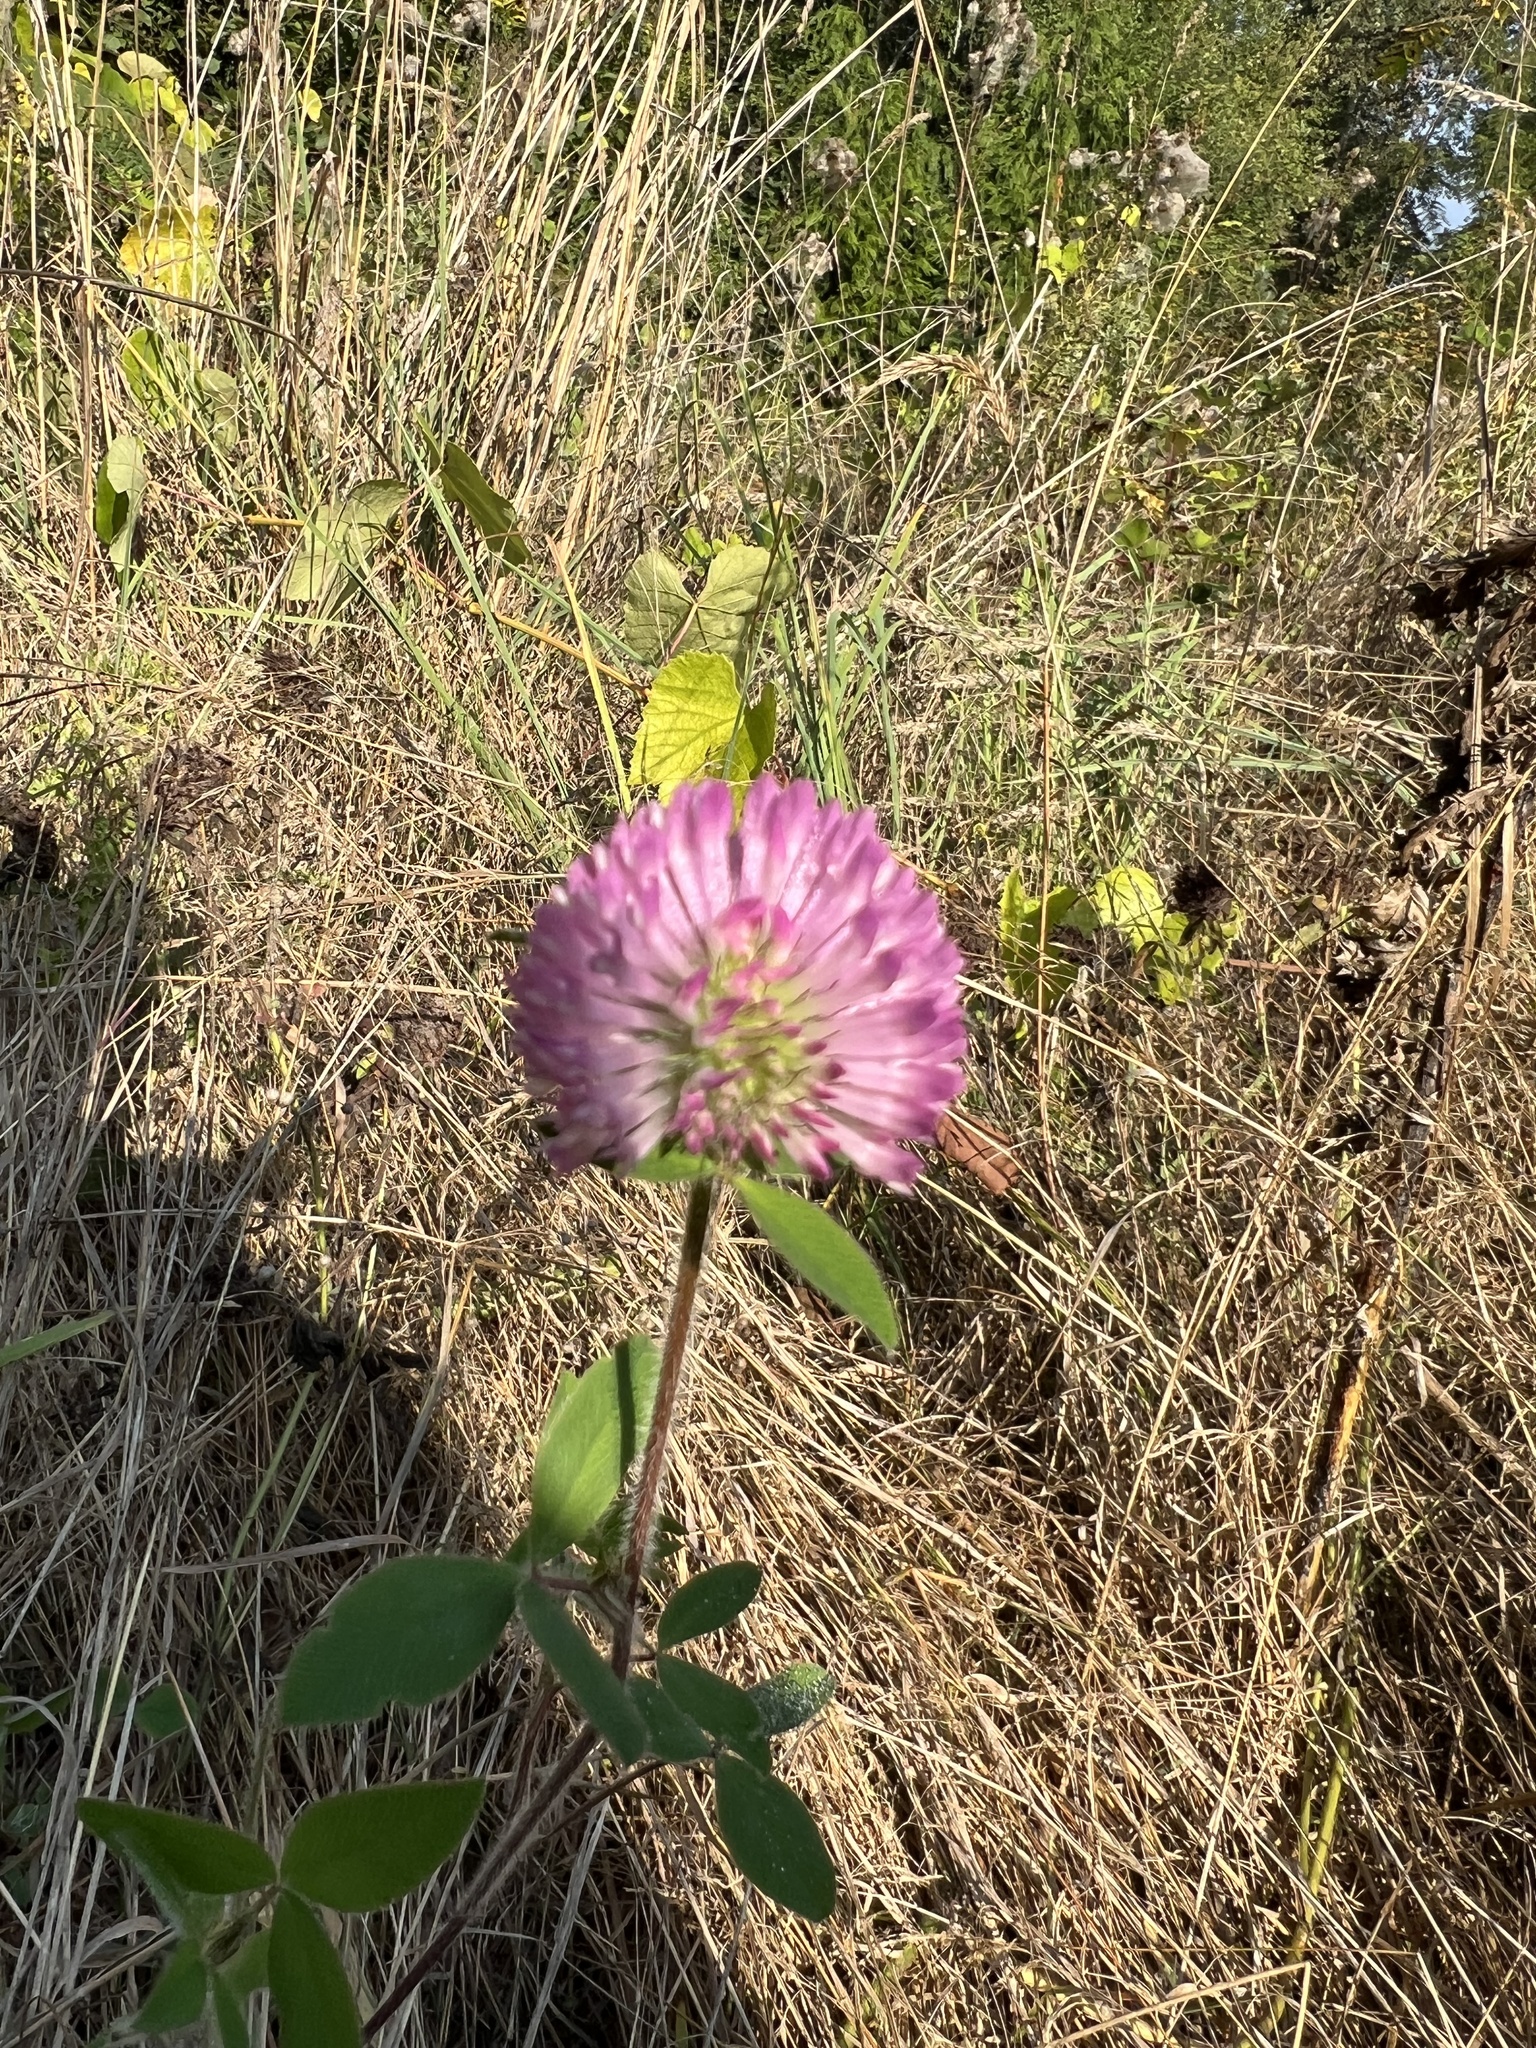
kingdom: Plantae
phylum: Tracheophyta
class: Magnoliopsida
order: Fabales
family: Fabaceae
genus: Trifolium
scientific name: Trifolium pratense
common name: Red clover
